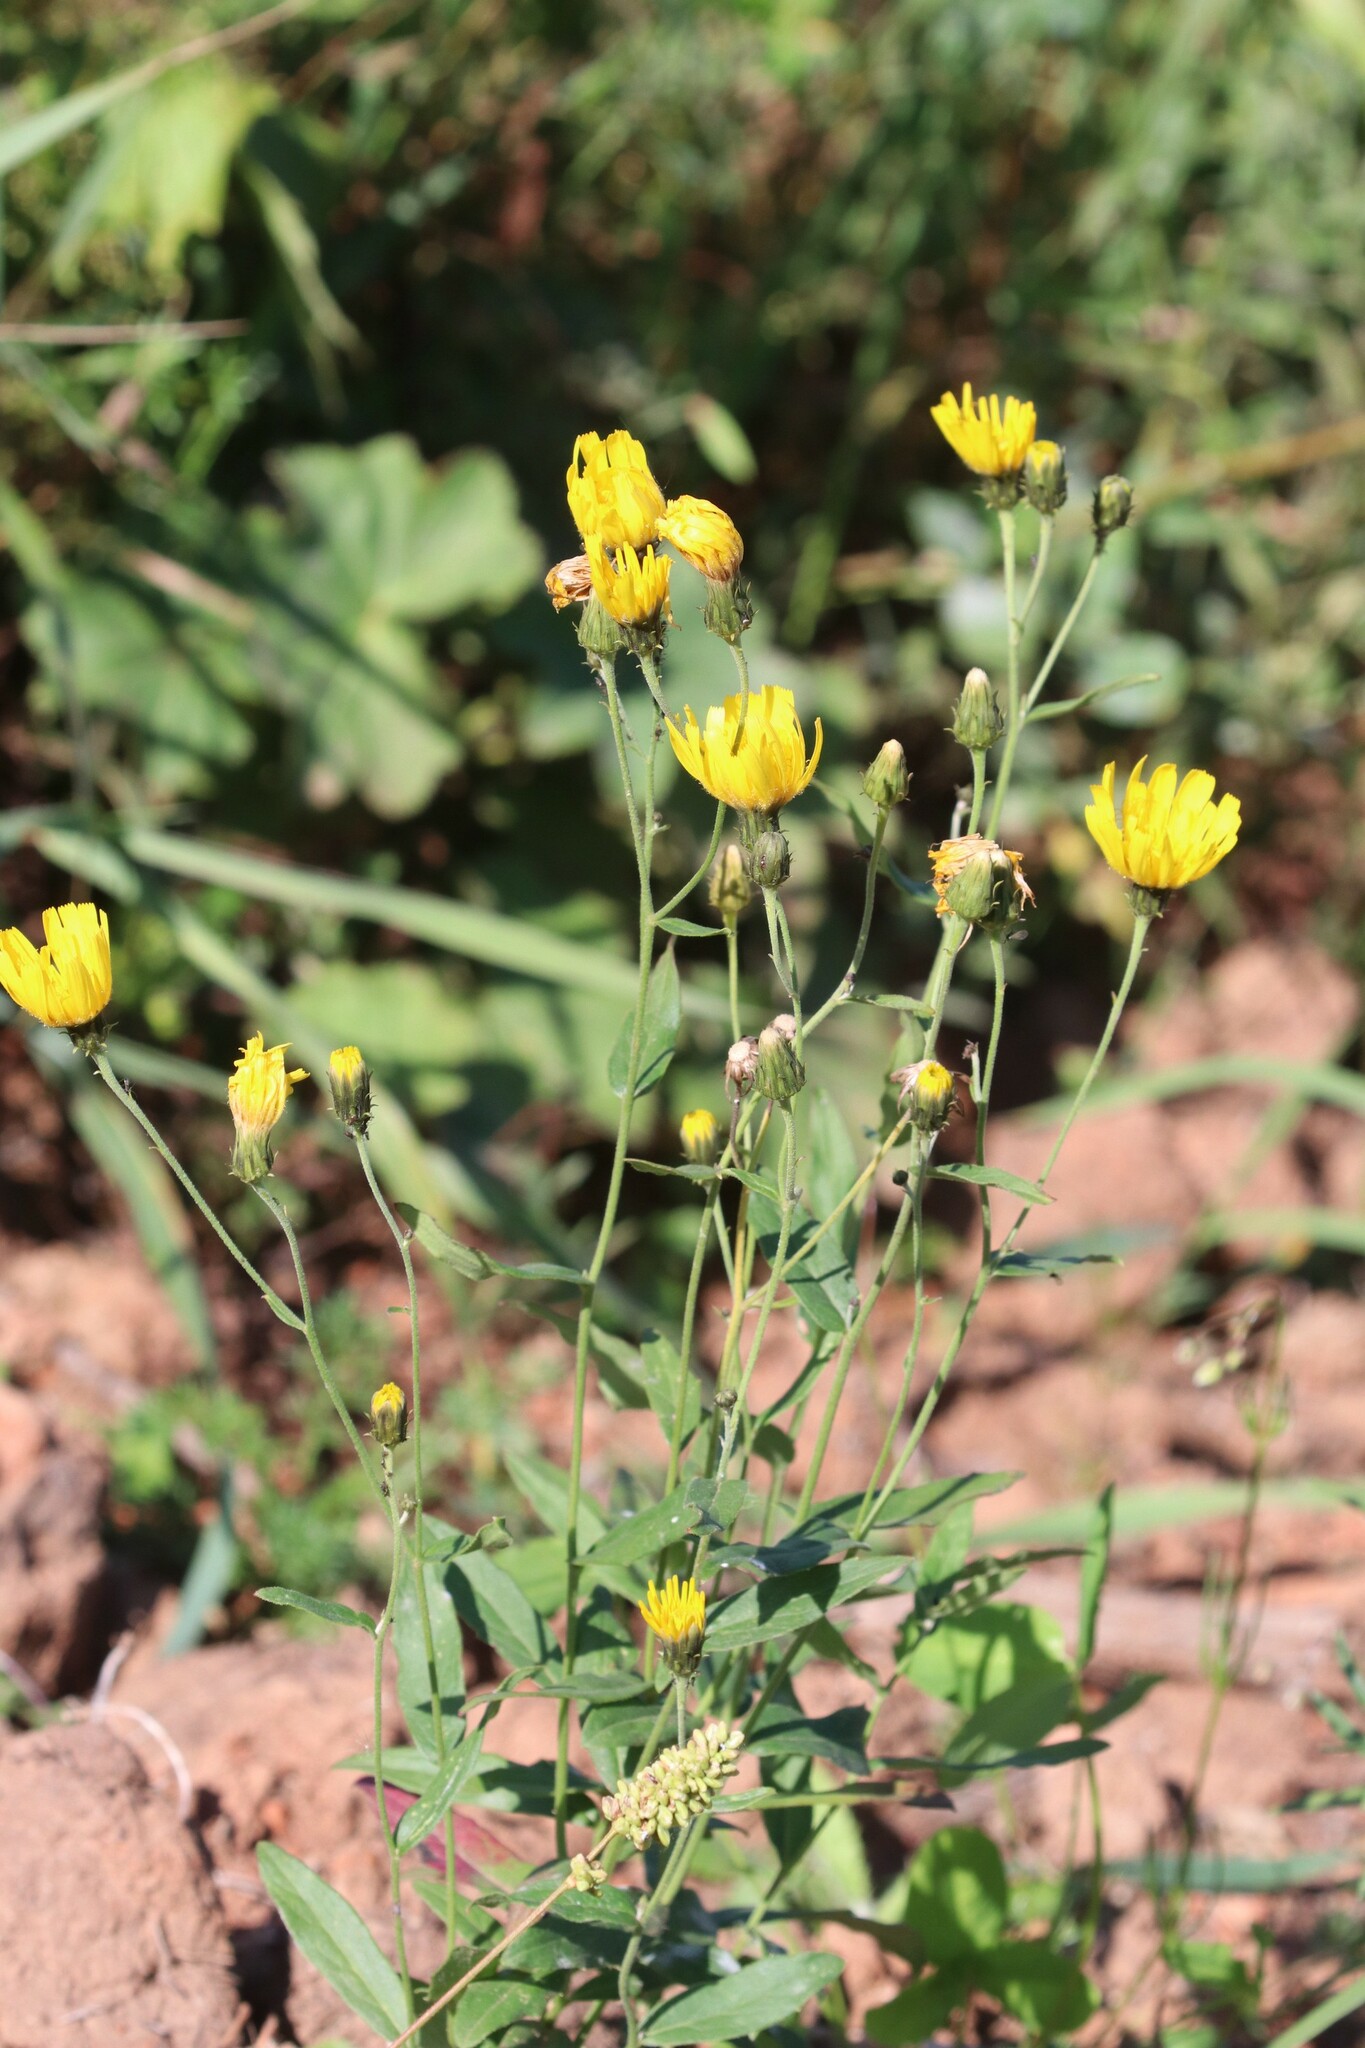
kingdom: Plantae
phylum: Tracheophyta
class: Magnoliopsida
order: Asterales
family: Asteraceae
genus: Hieracium
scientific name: Hieracium umbellatum
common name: Northern hawkweed
